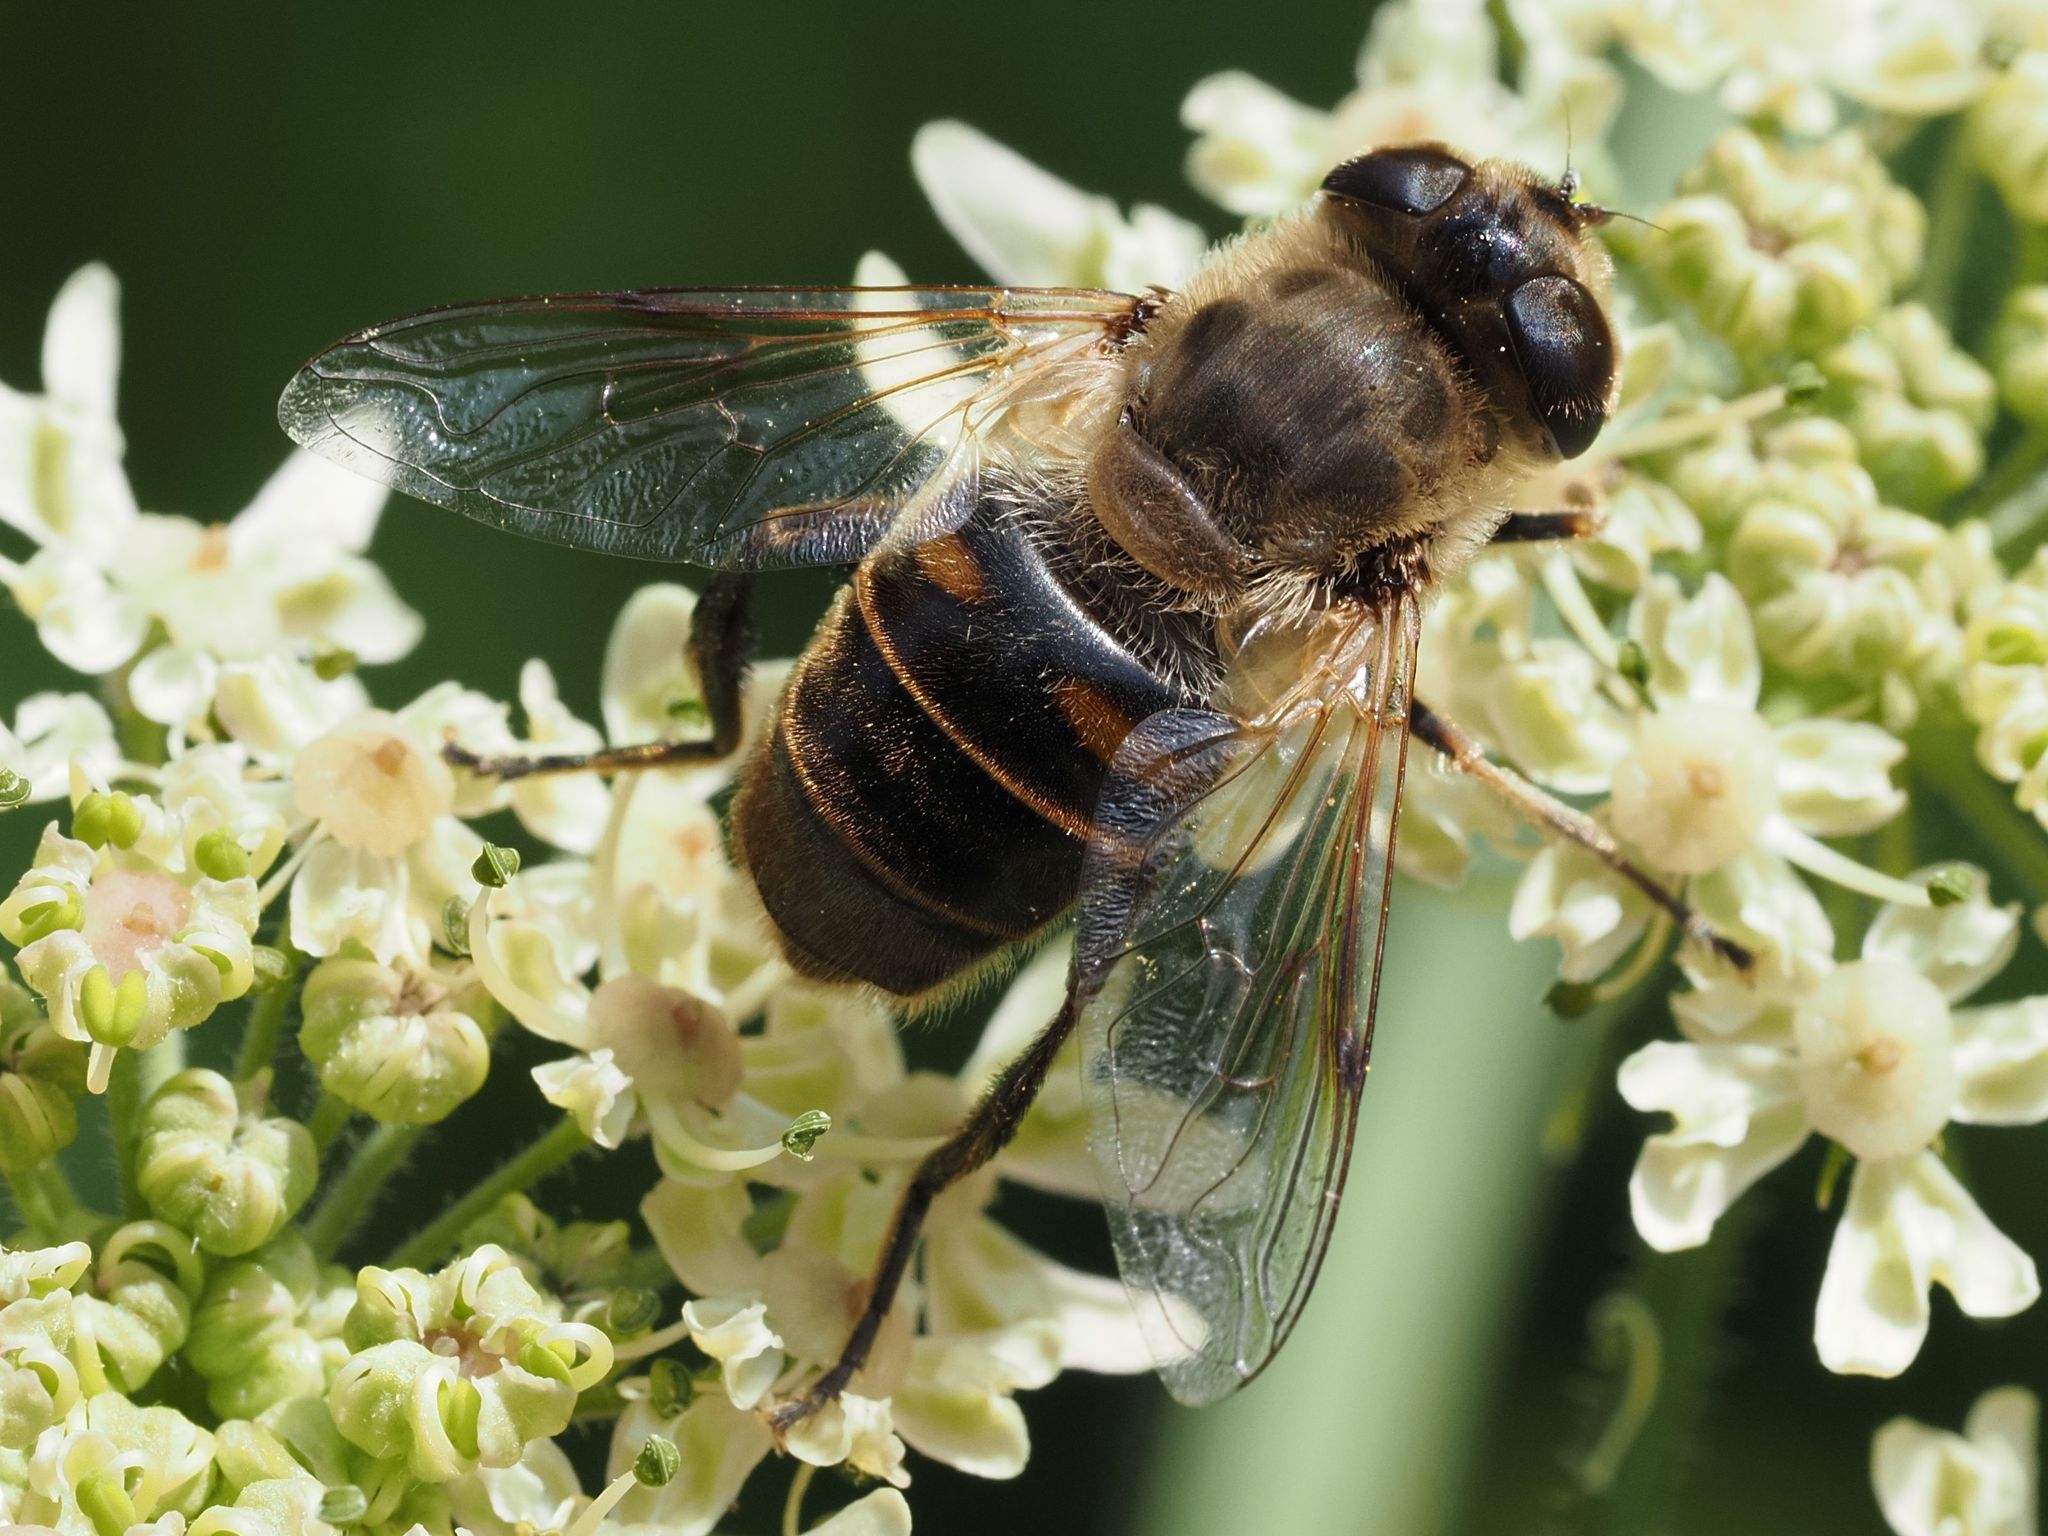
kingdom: Animalia
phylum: Arthropoda
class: Insecta
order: Diptera
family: Syrphidae
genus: Eristalis
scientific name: Eristalis tenax
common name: Drone fly
